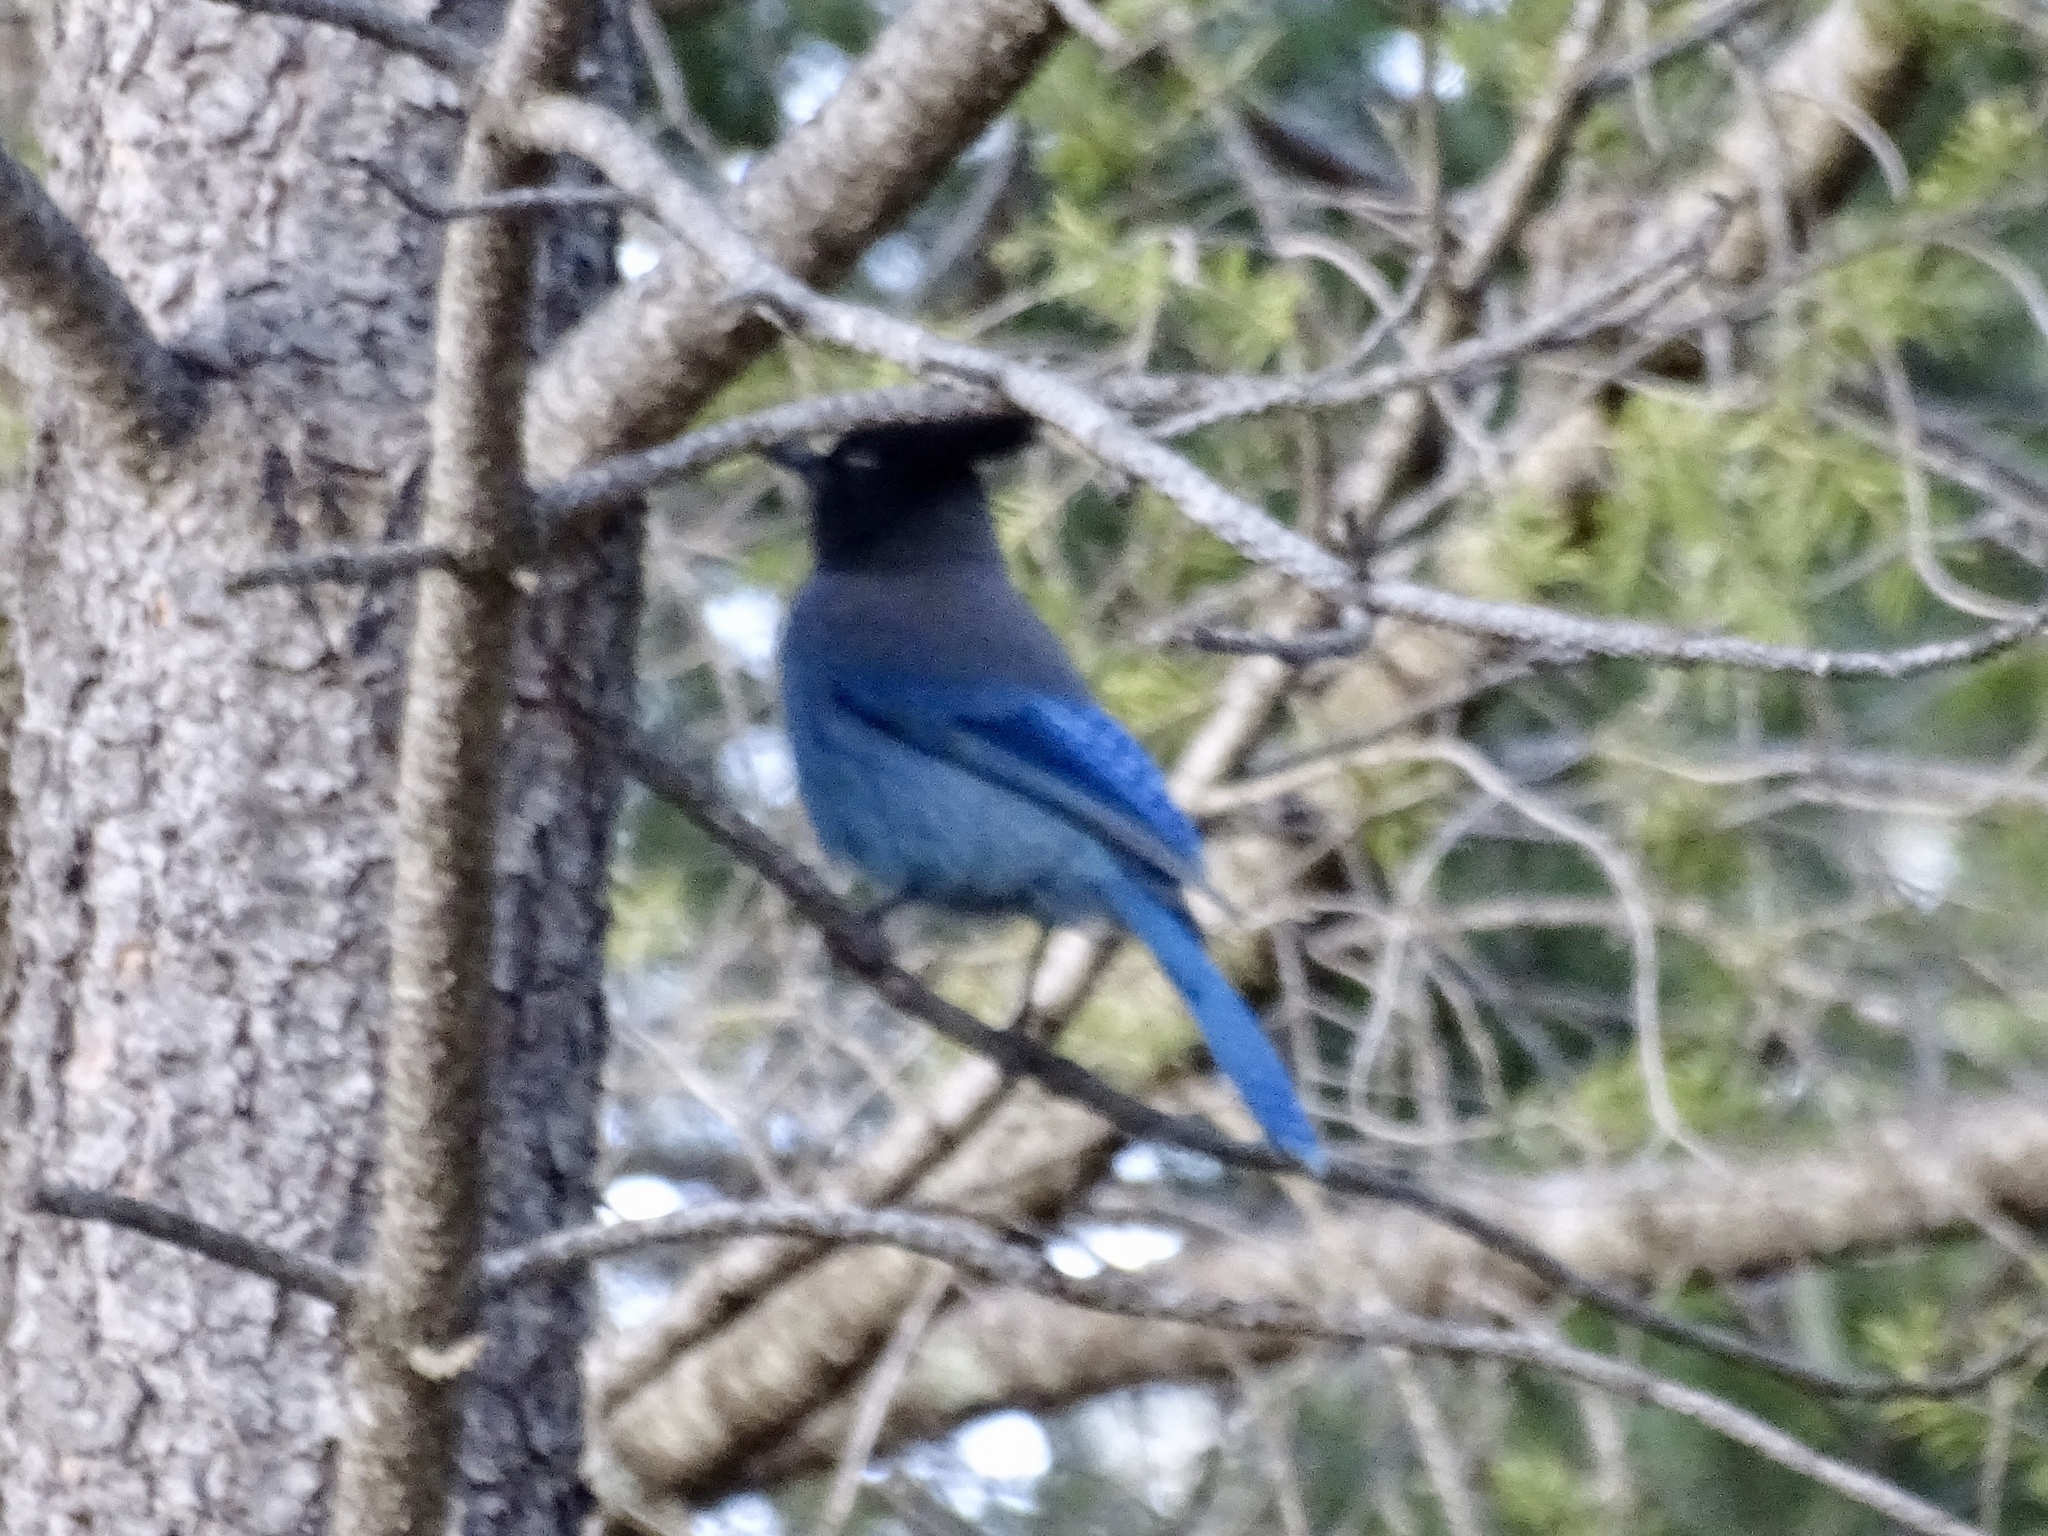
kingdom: Animalia
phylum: Chordata
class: Aves
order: Passeriformes
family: Corvidae
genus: Cyanocitta
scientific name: Cyanocitta stelleri
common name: Steller's jay
